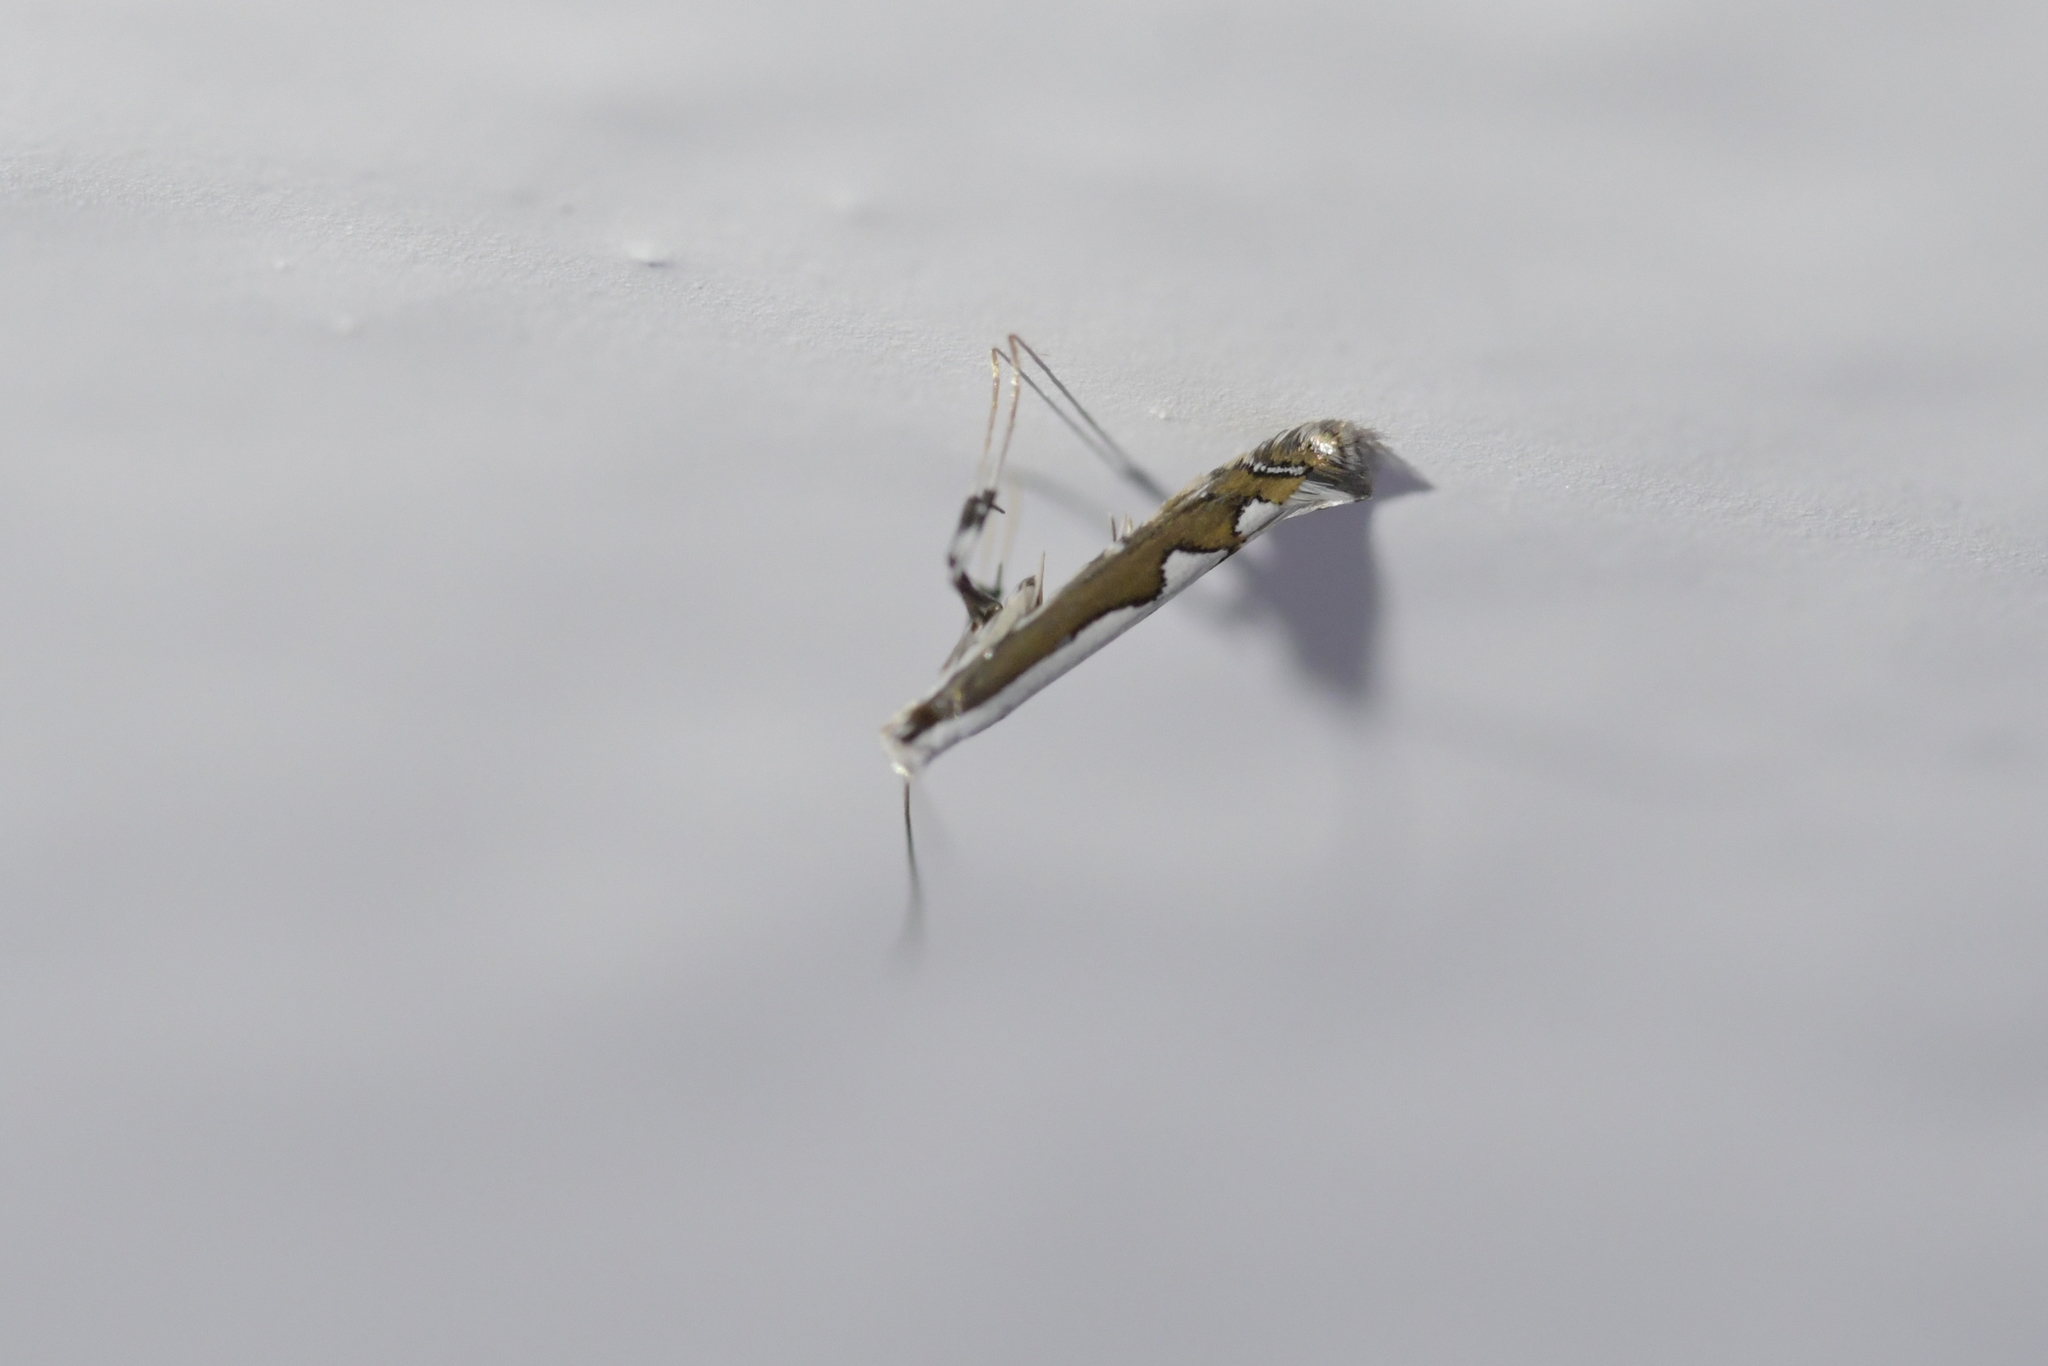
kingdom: Animalia
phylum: Arthropoda
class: Insecta
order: Lepidoptera
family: Gracillariidae
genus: Dialectica
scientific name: Dialectica scalariella
